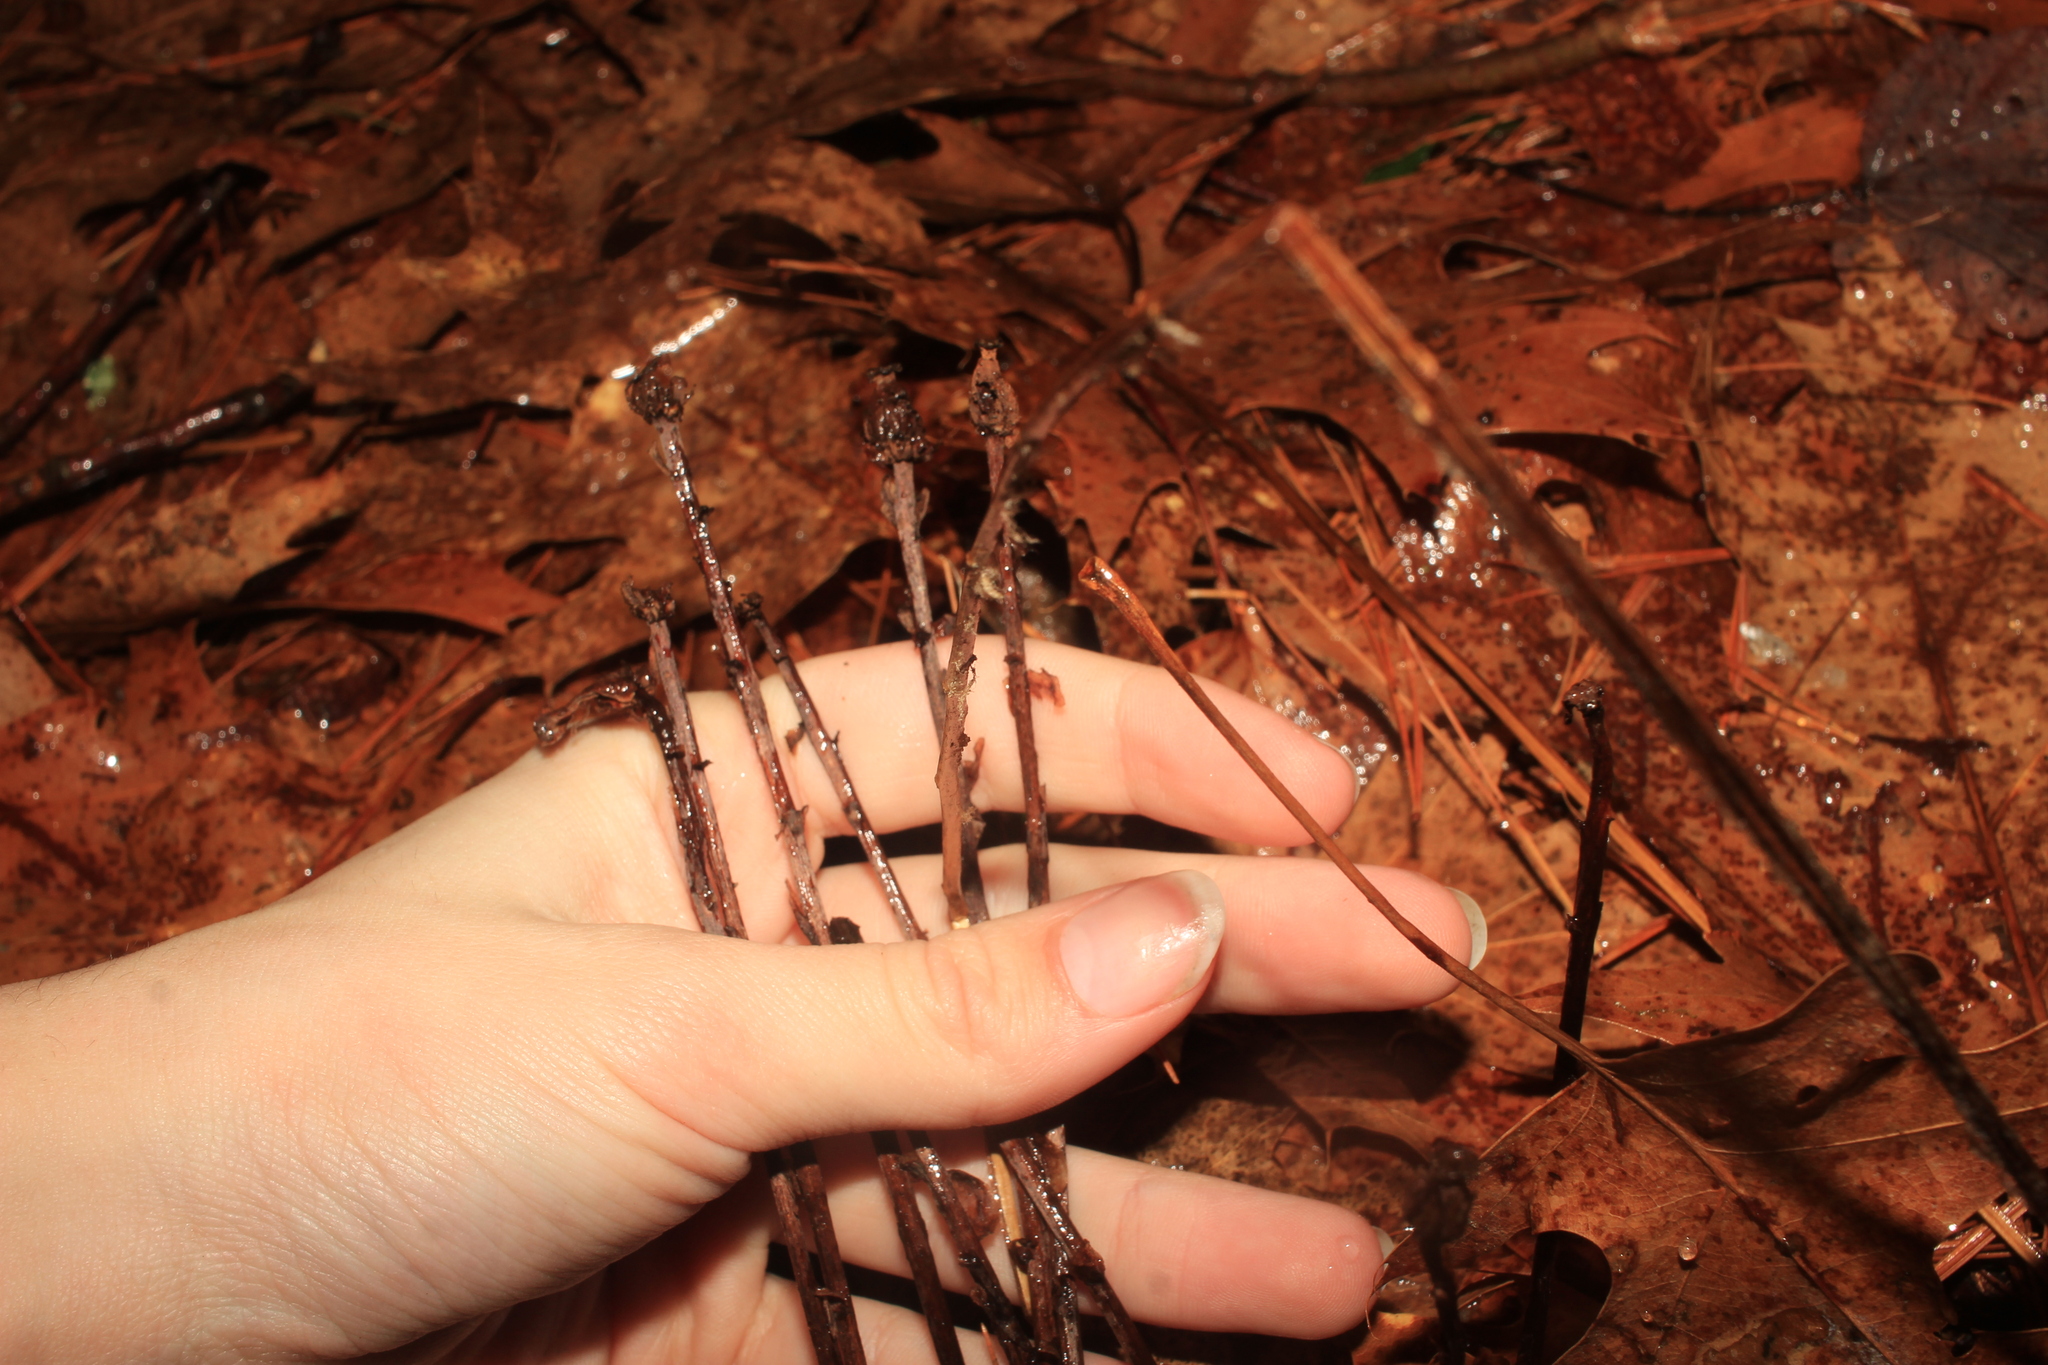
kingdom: Plantae
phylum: Tracheophyta
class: Magnoliopsida
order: Ericales
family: Ericaceae
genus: Monotropa
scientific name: Monotropa uniflora
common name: Convulsion root
